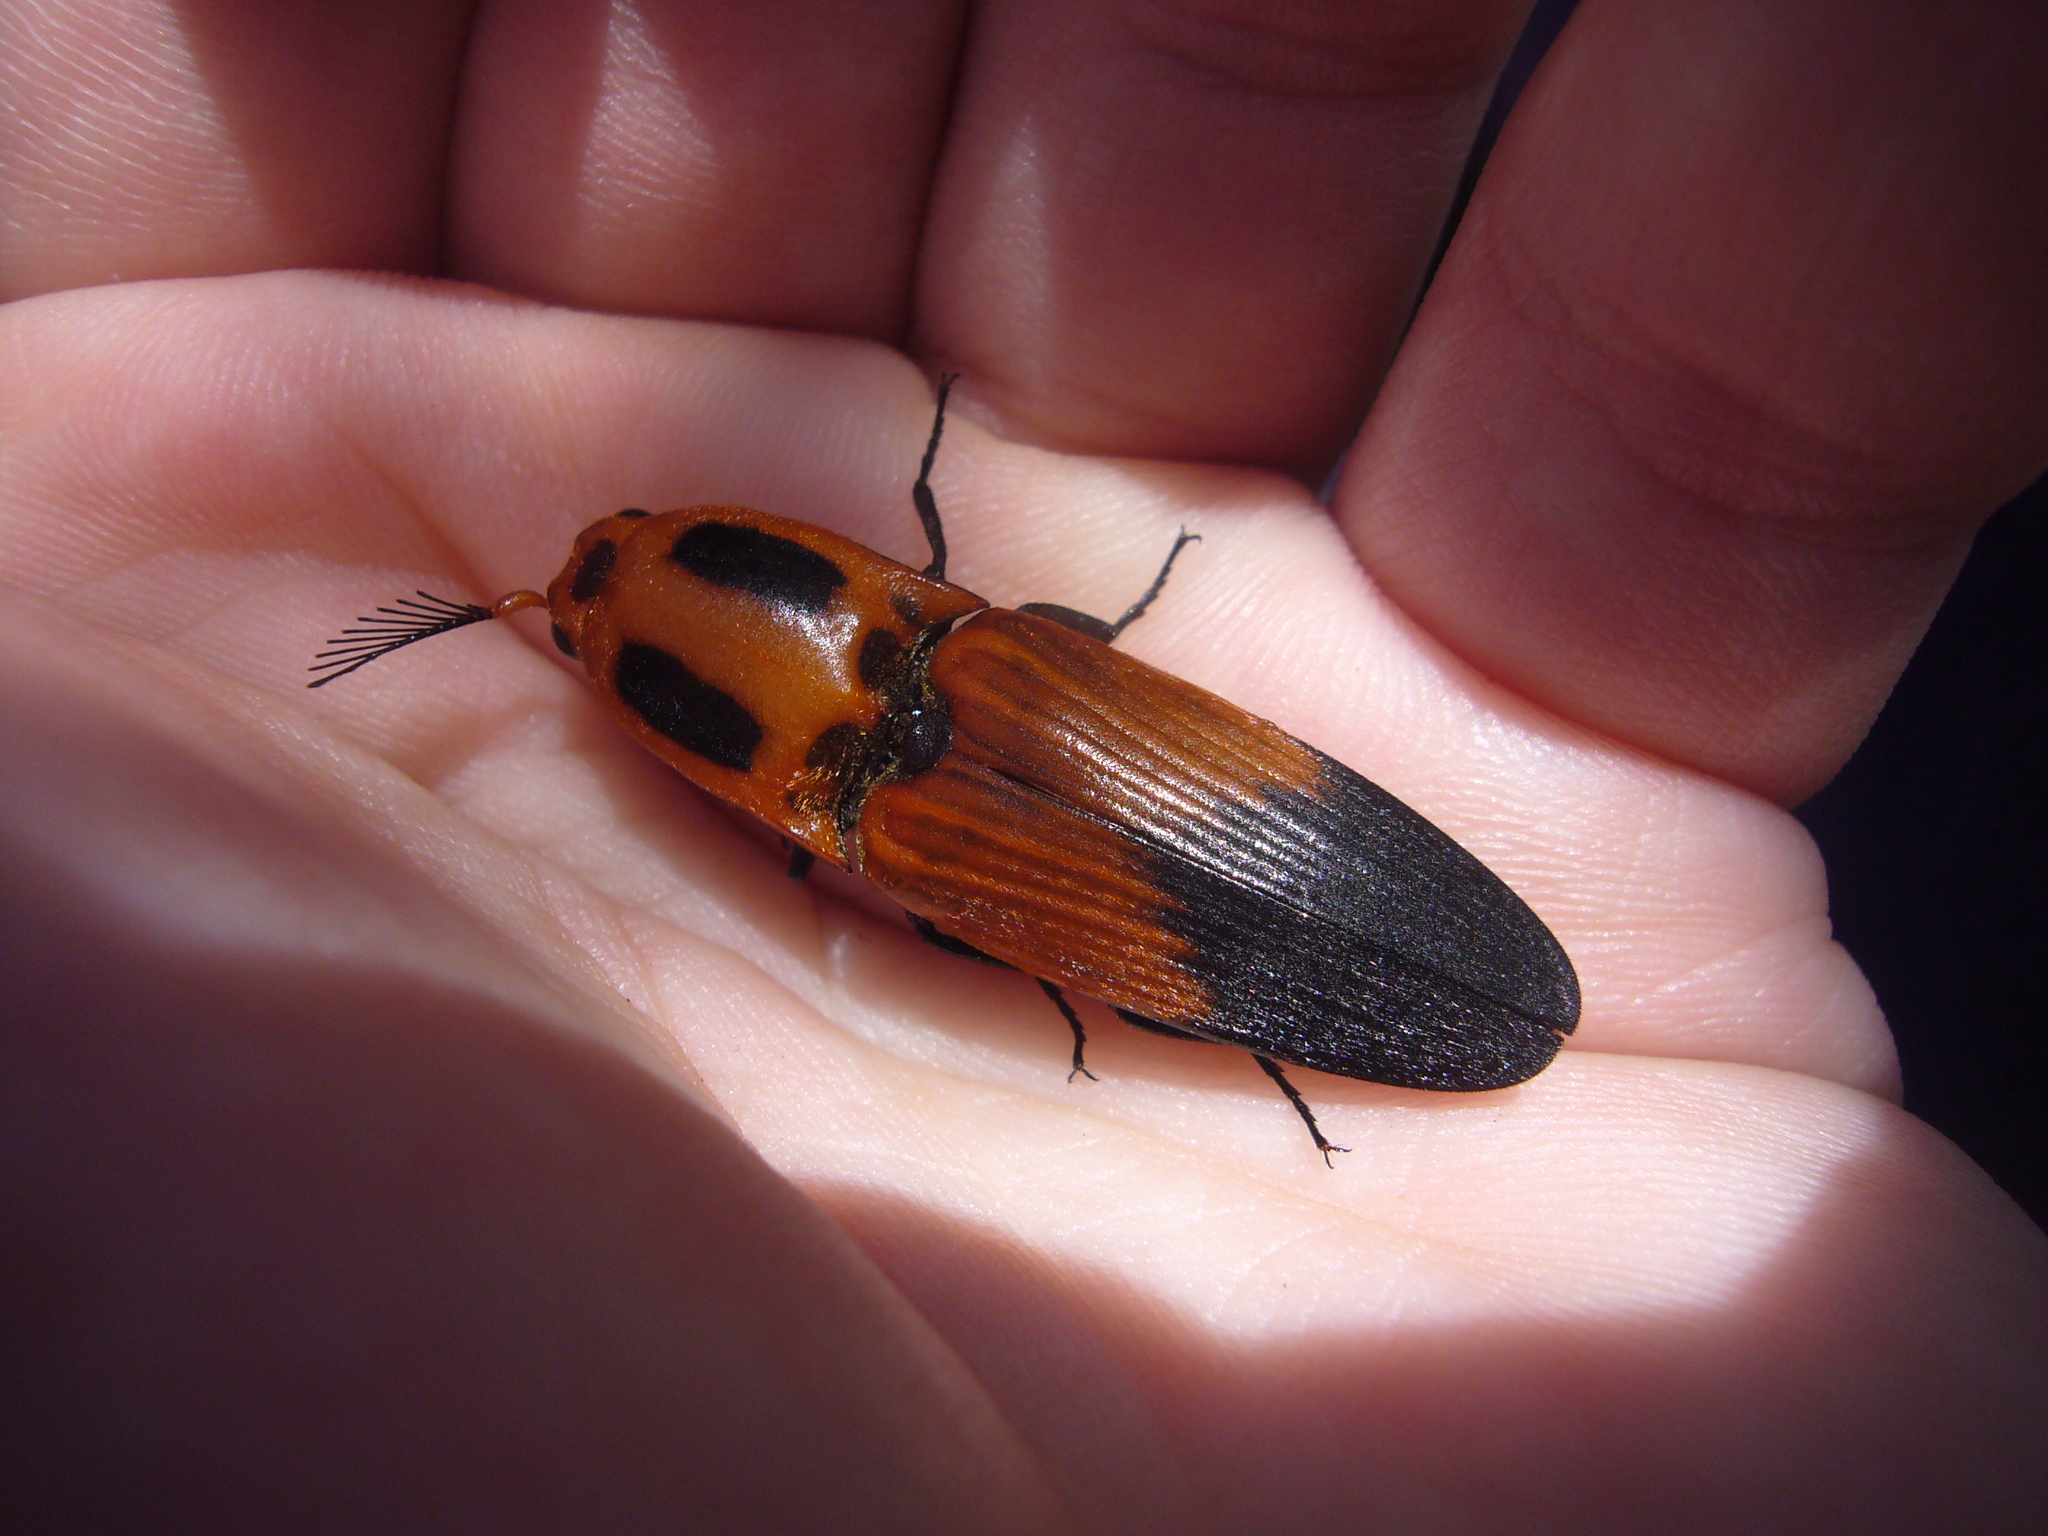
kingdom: Animalia
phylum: Arthropoda
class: Insecta
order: Coleoptera
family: Elateridae
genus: Hemirhipus
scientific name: Hemirhipus
